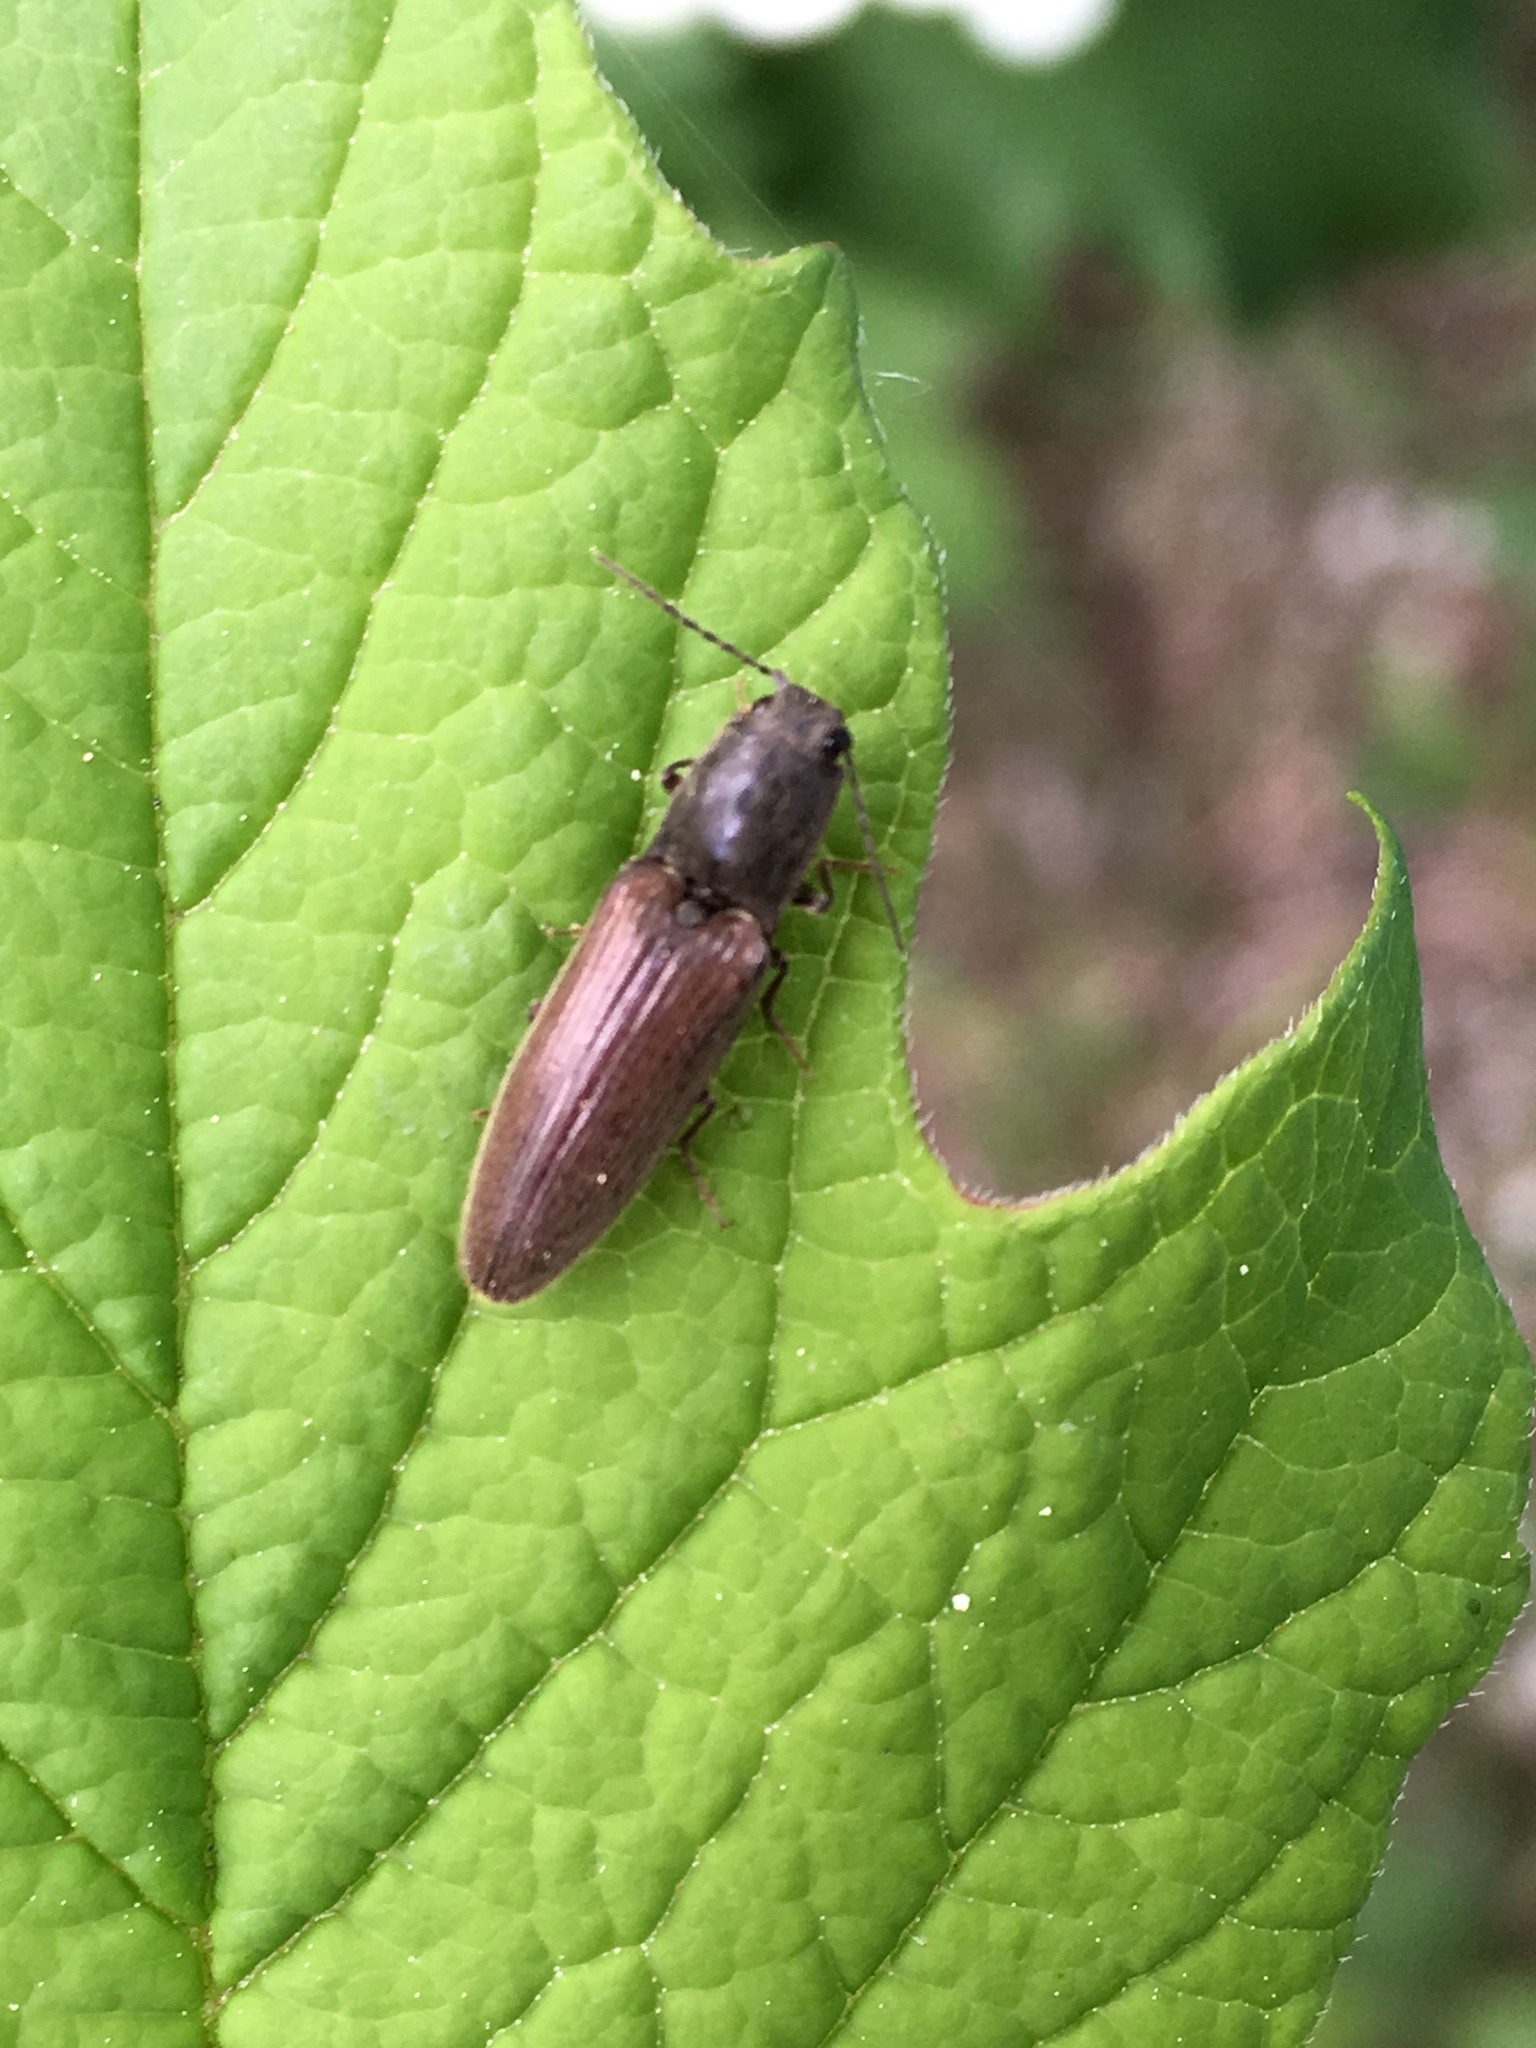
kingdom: Animalia
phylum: Arthropoda
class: Insecta
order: Coleoptera
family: Elateridae
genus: Athous
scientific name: Athous haemorrhoidalis
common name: Red-brown click beetle
